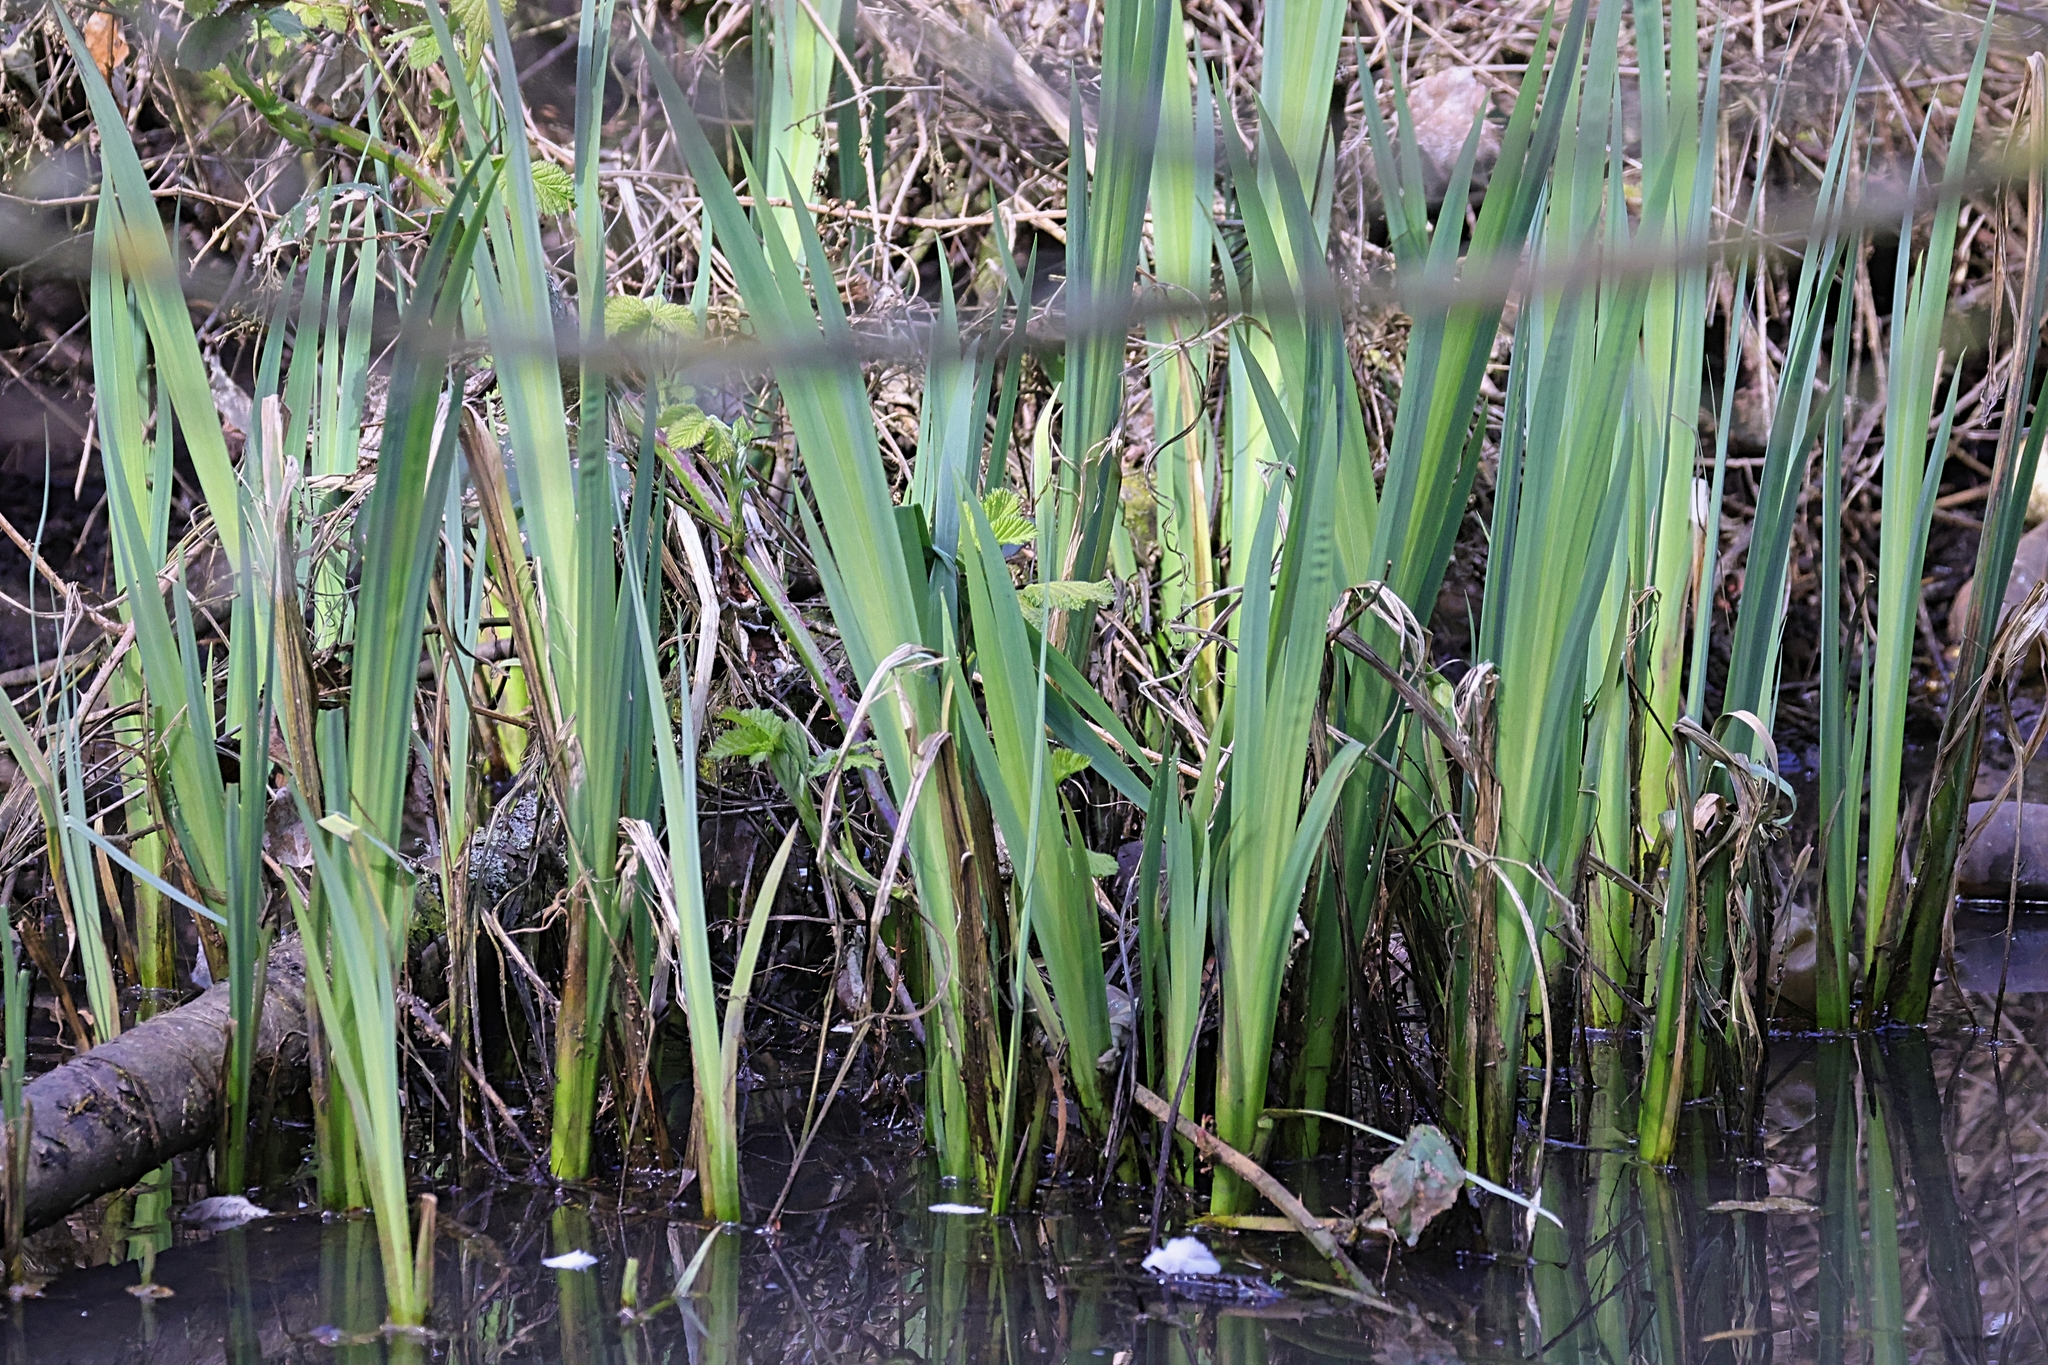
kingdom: Plantae
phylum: Tracheophyta
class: Liliopsida
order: Poales
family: Typhaceae
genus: Typha
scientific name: Typha latifolia
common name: Broadleaf cattail
